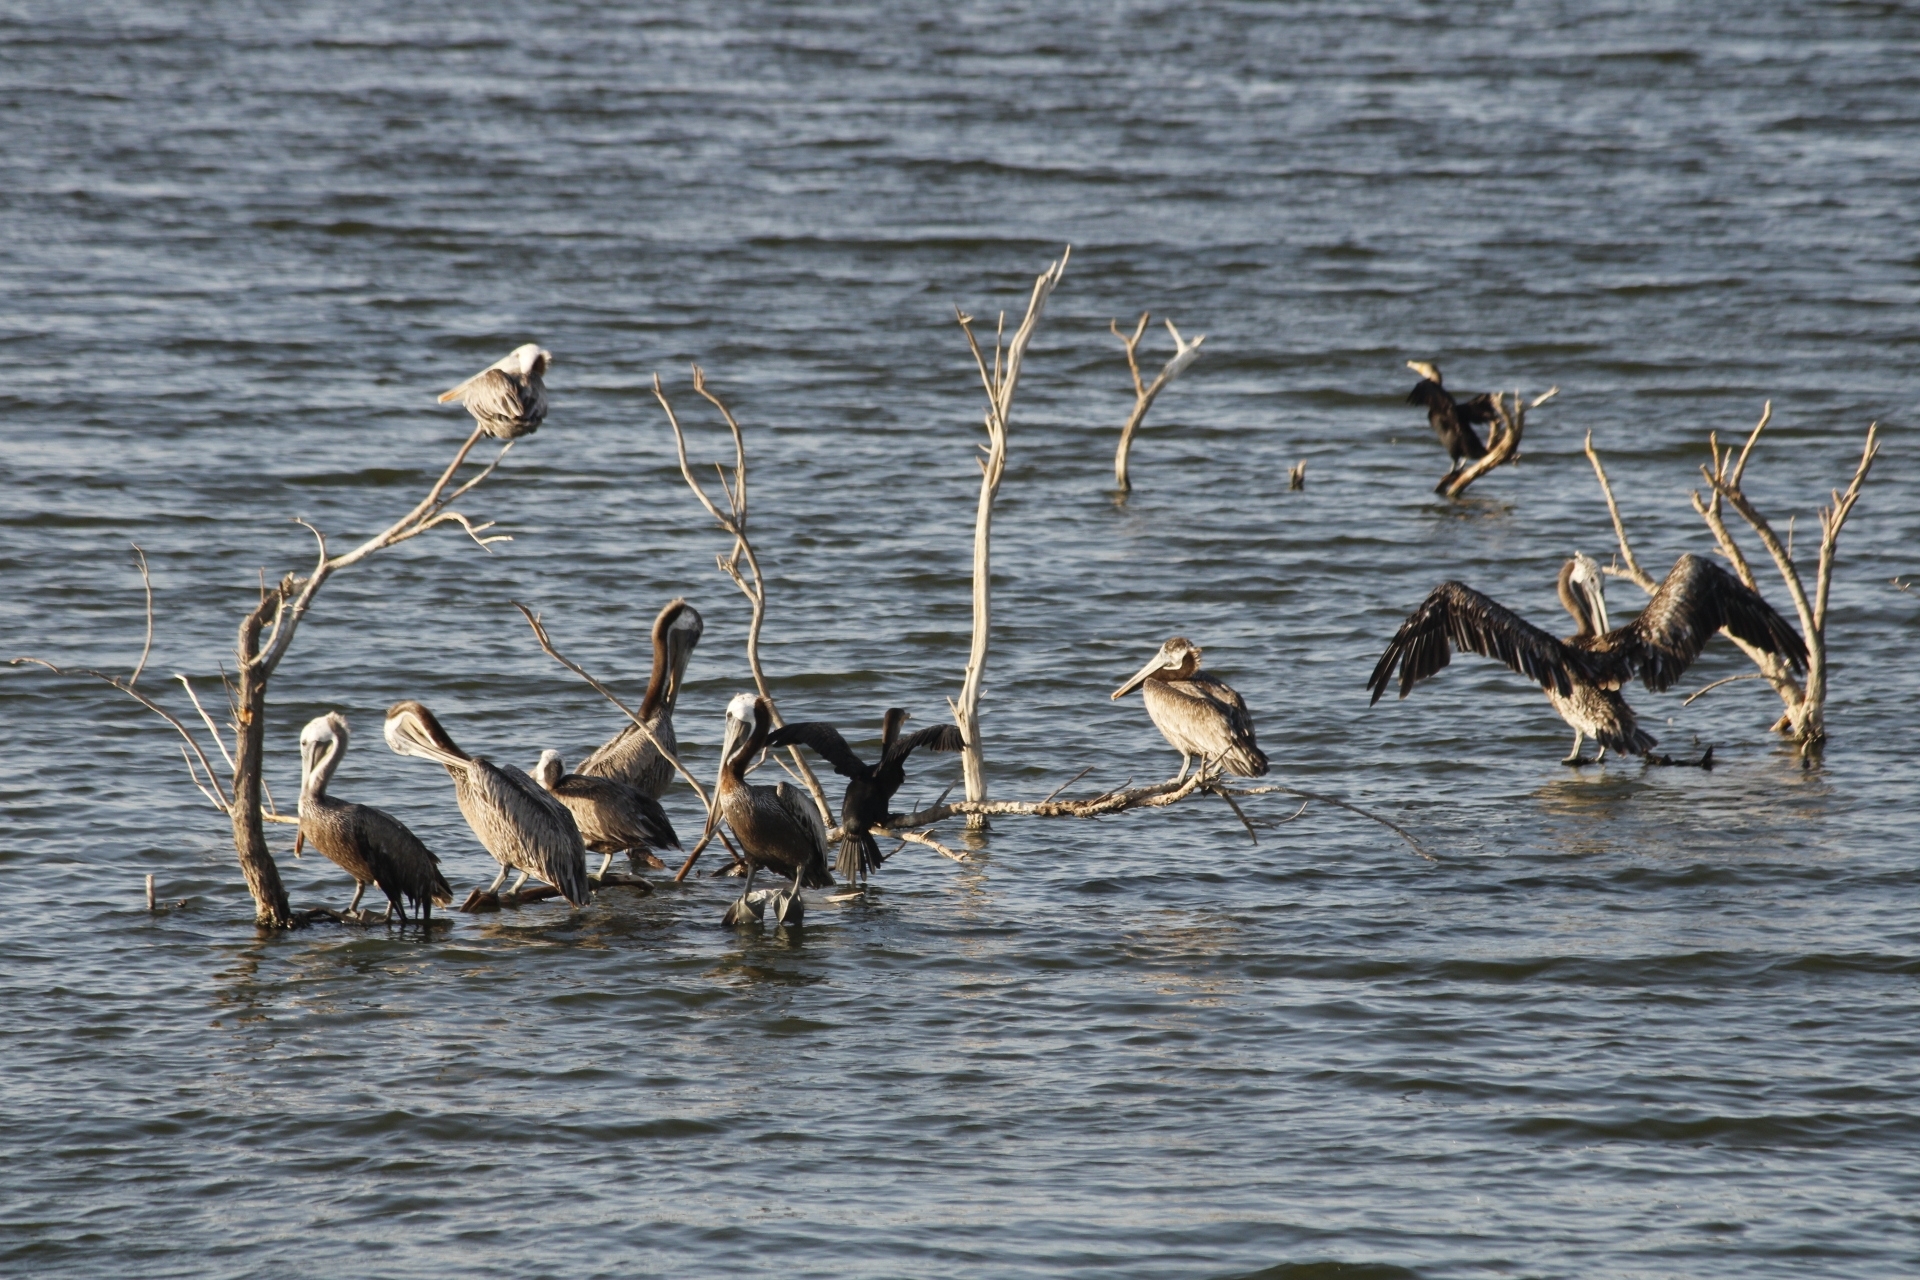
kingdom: Animalia
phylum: Chordata
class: Aves
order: Pelecaniformes
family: Pelecanidae
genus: Pelecanus
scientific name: Pelecanus occidentalis
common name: Brown pelican
